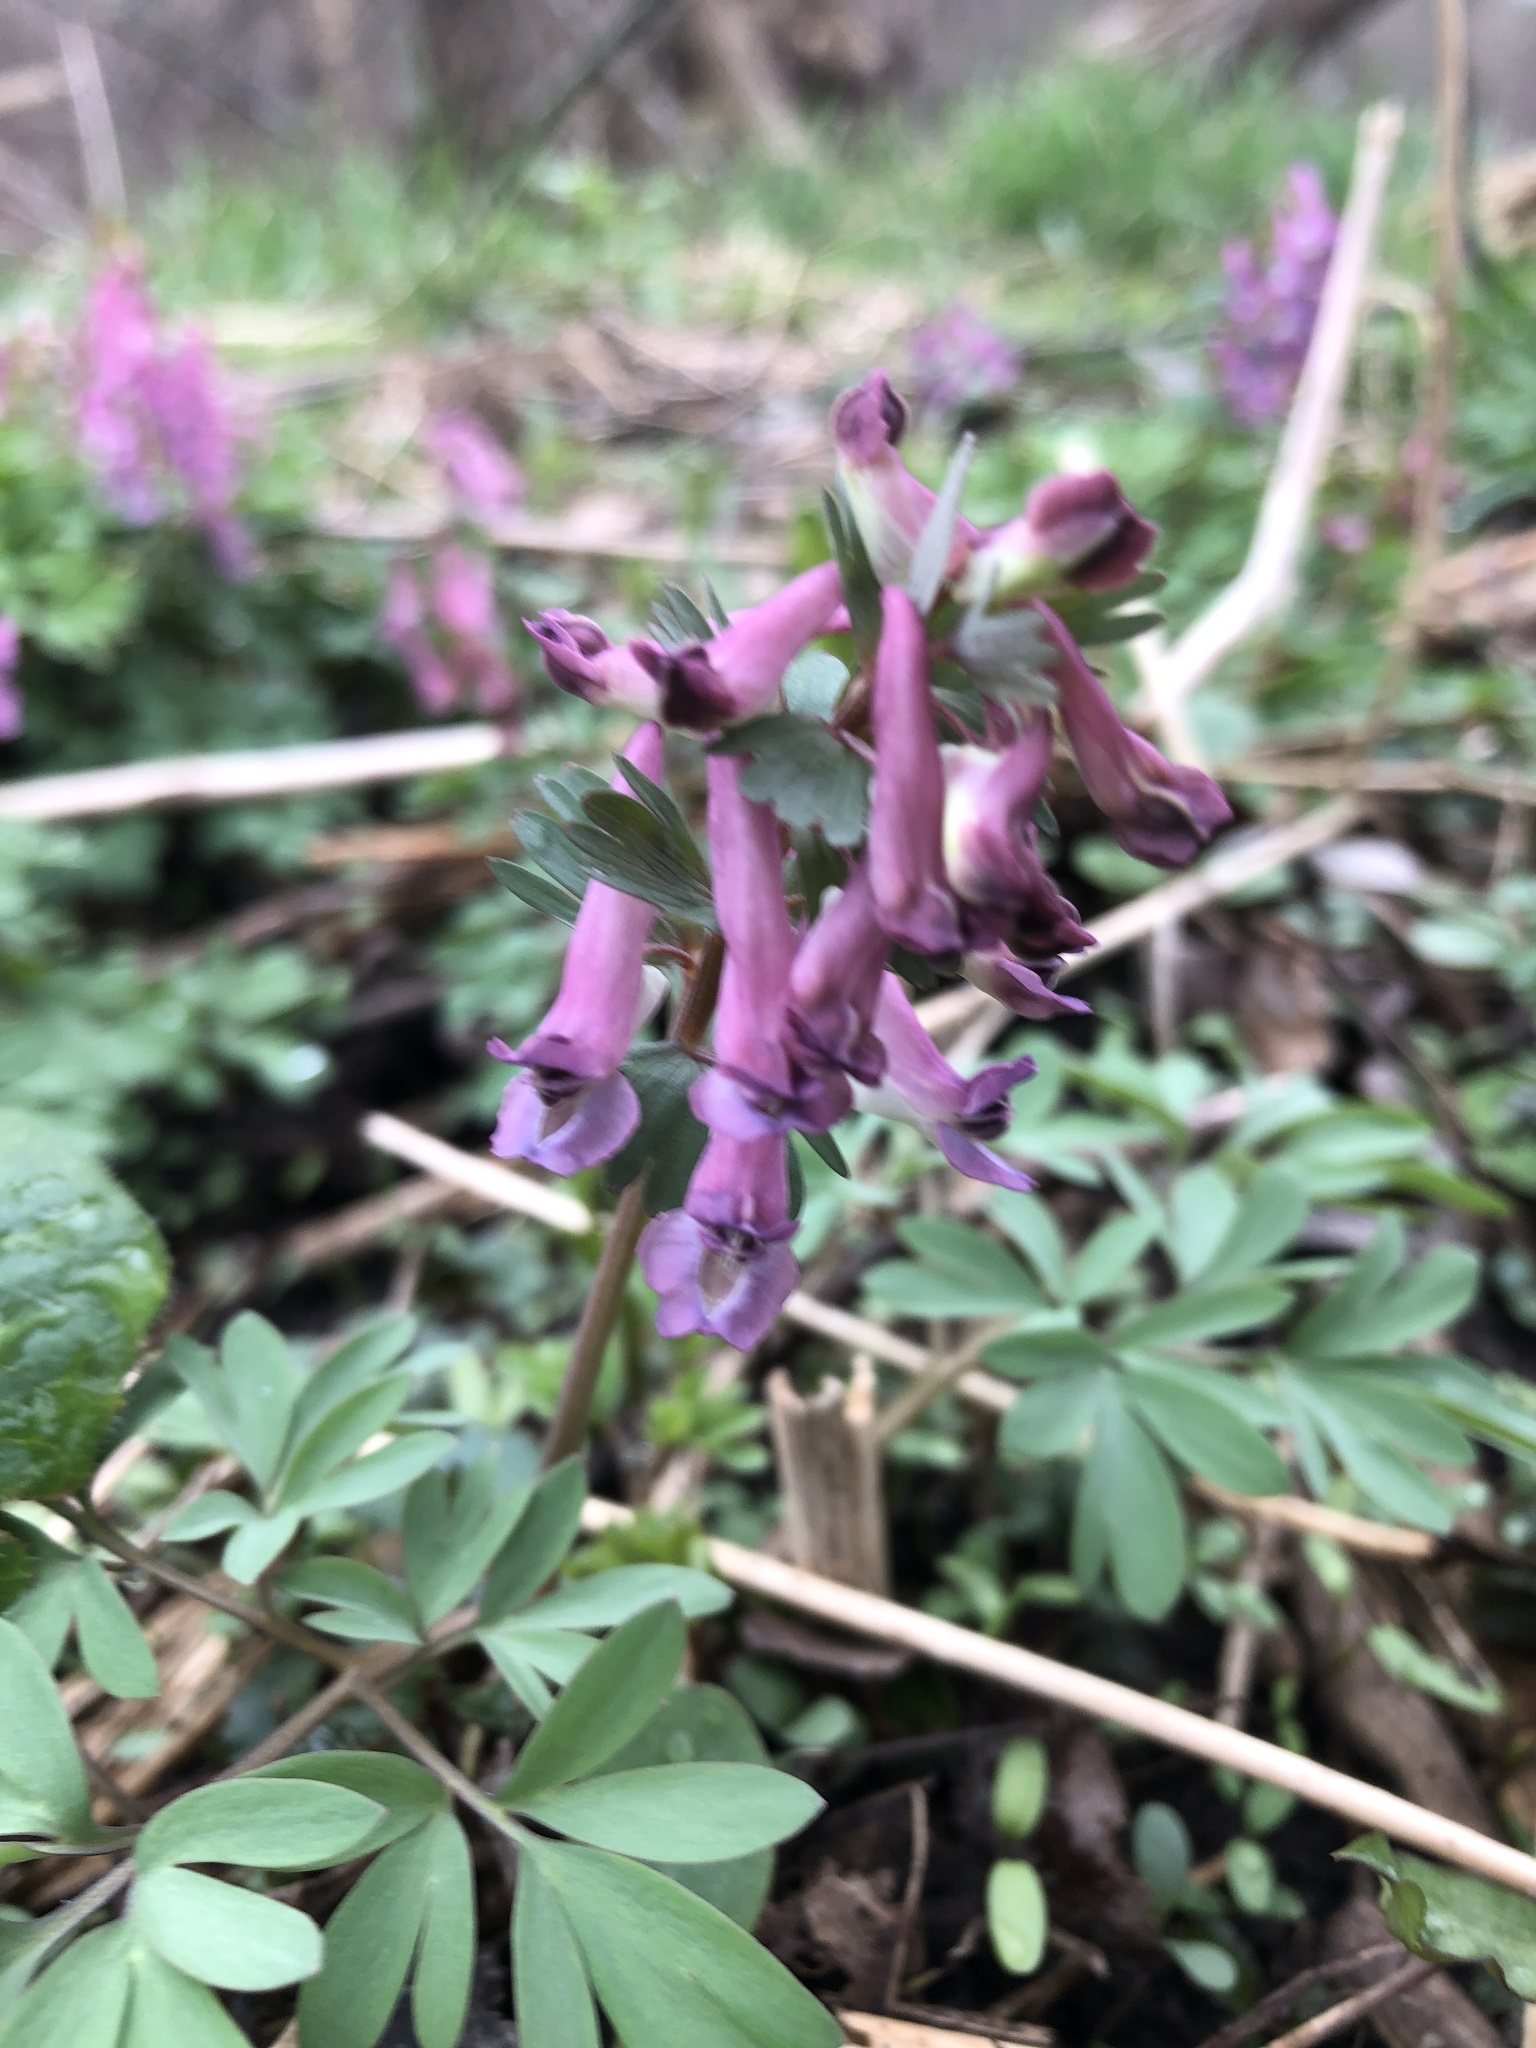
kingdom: Plantae
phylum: Tracheophyta
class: Magnoliopsida
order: Ranunculales
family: Papaveraceae
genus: Corydalis
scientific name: Corydalis solida
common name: Bird-in-a-bush
